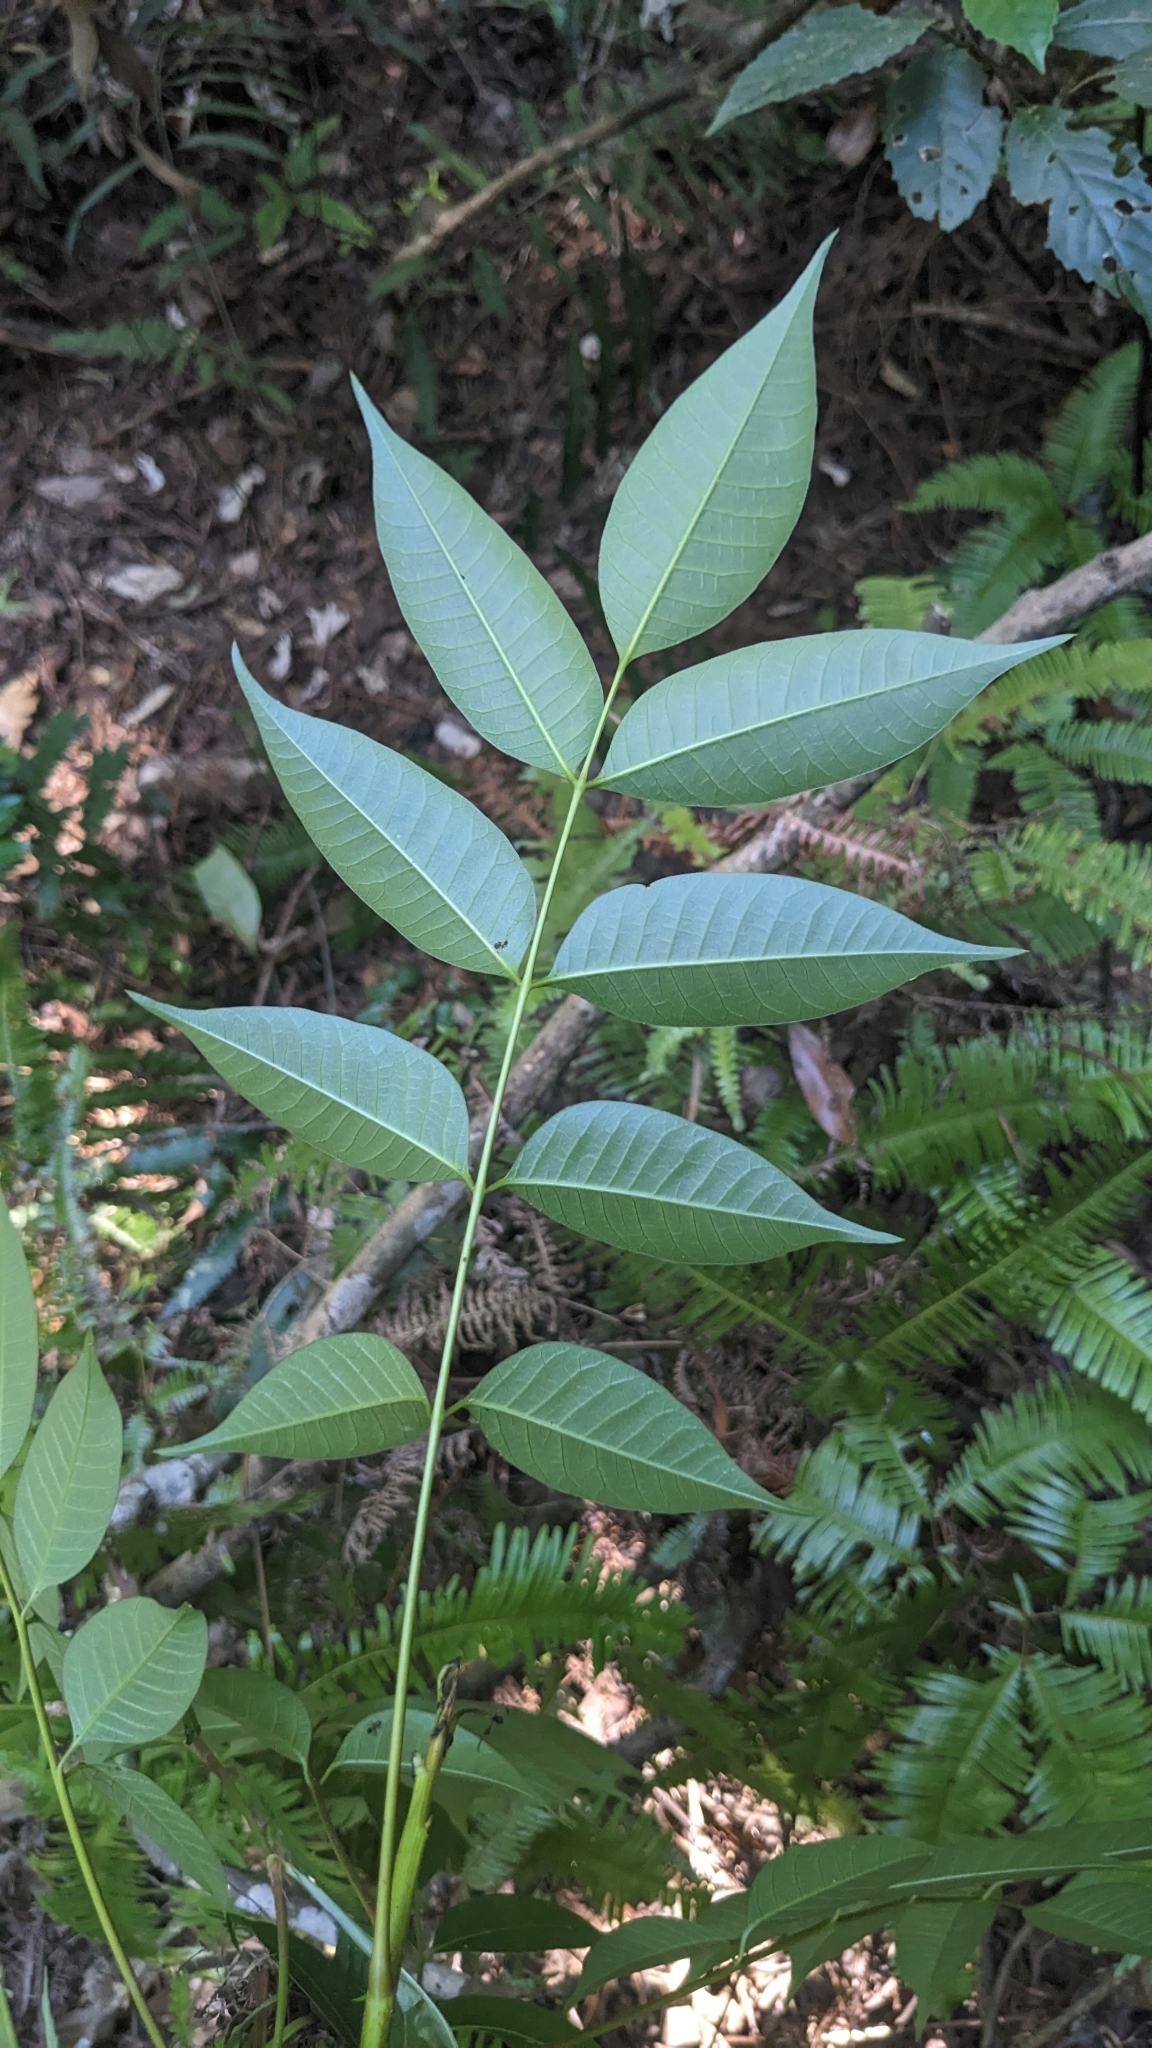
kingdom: Plantae
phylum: Tracheophyta
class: Magnoliopsida
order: Sapindales
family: Anacardiaceae
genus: Toxicodendron
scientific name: Toxicodendron succedaneum
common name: Wax tree
